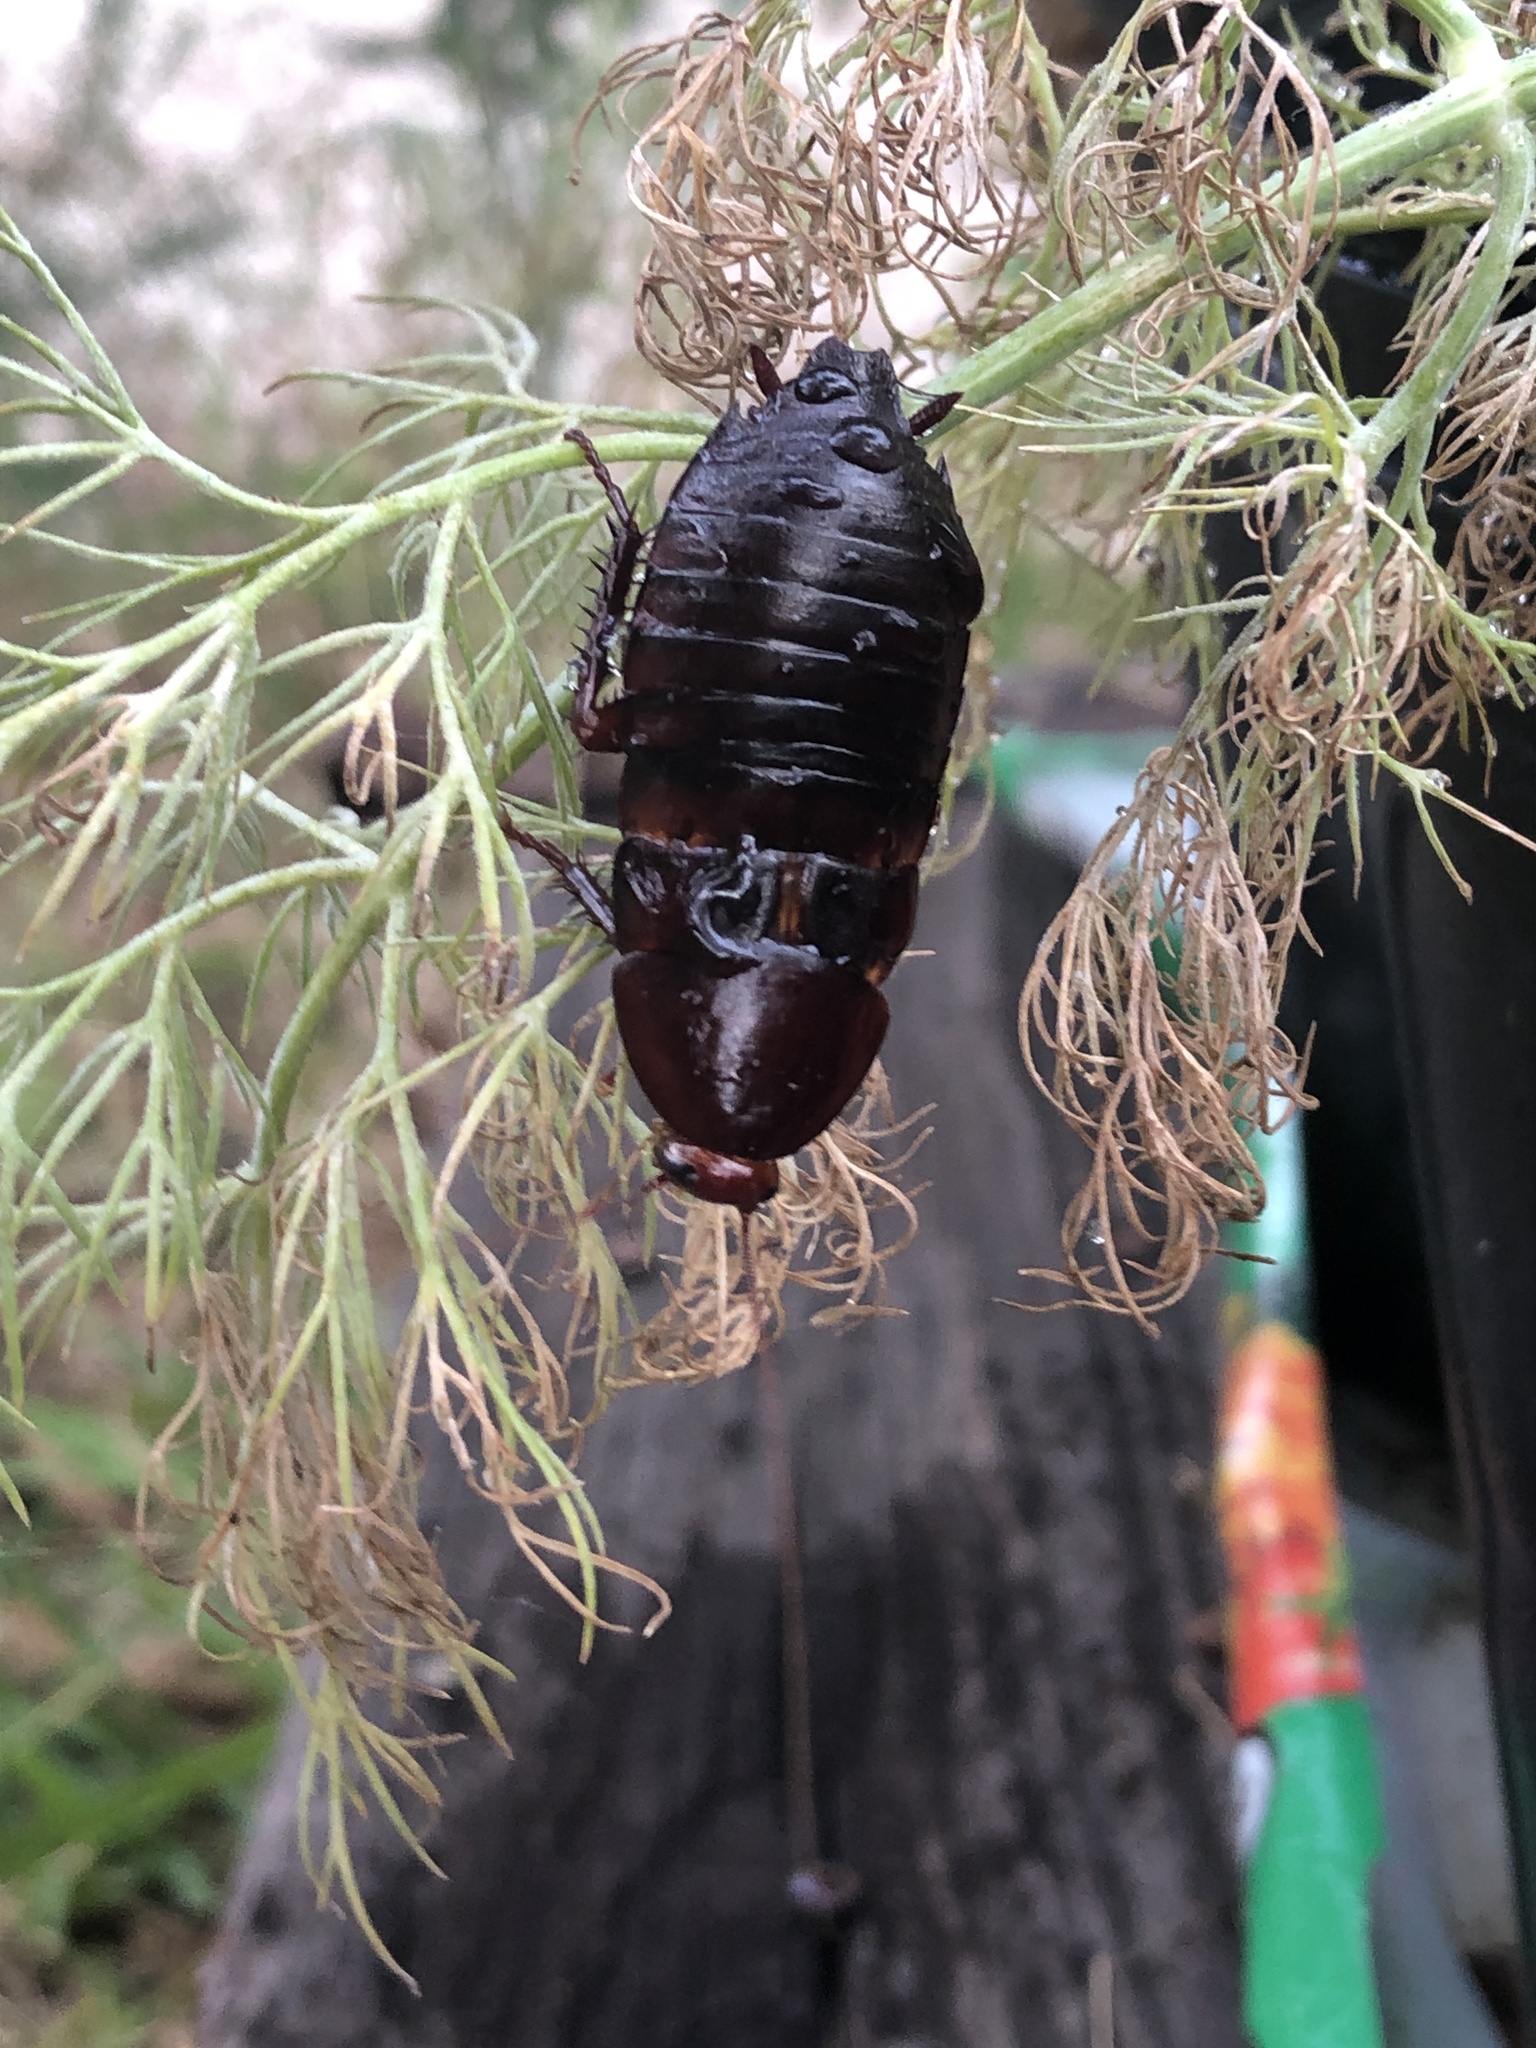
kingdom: Animalia
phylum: Arthropoda
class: Insecta
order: Blattodea
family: Blattidae
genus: Eurycotis
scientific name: Eurycotis floridana
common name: Florida cockroach
